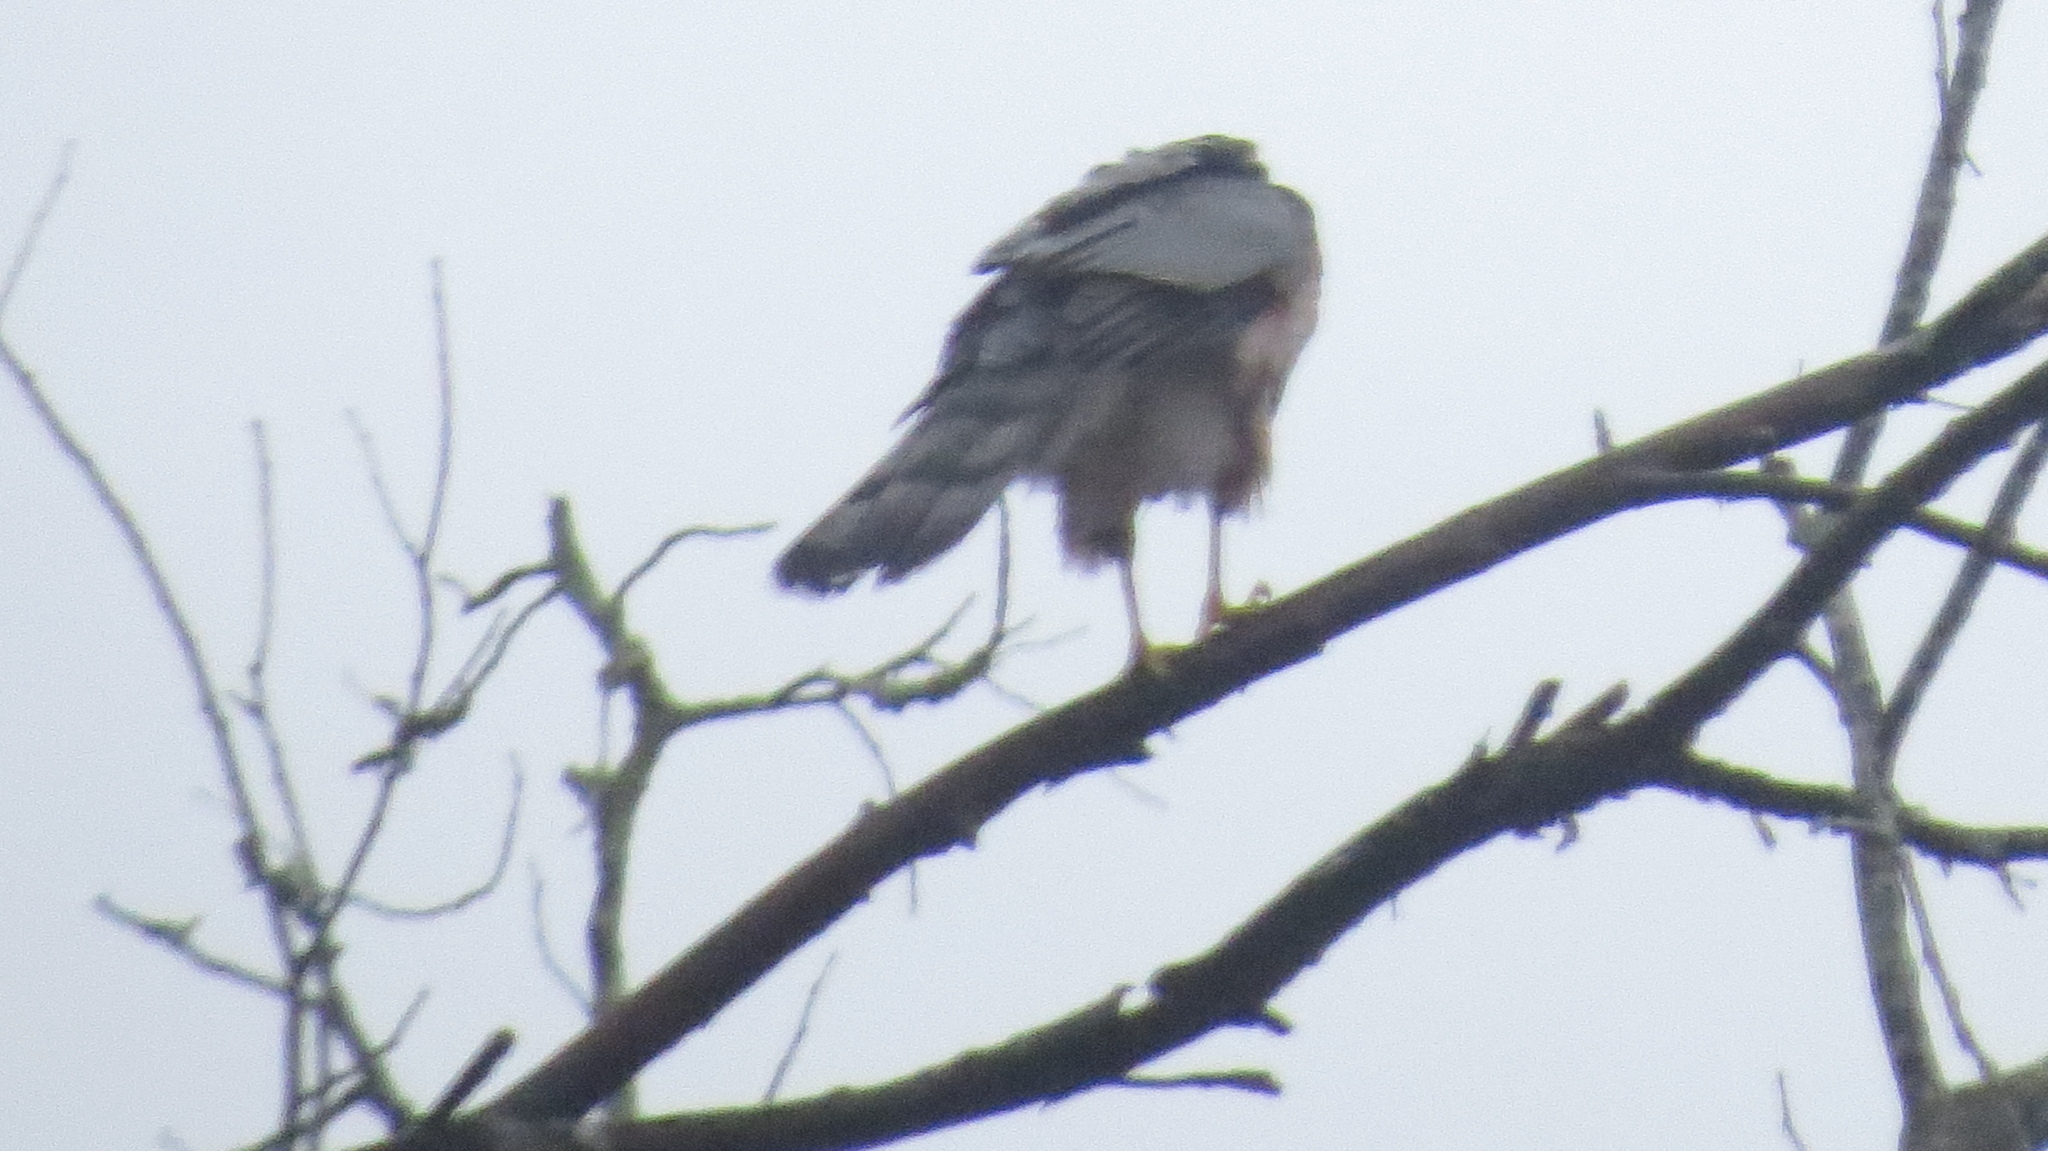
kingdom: Animalia
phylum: Chordata
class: Aves
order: Accipitriformes
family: Accipitridae
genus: Accipiter
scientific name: Accipiter cooperii
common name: Cooper's hawk
